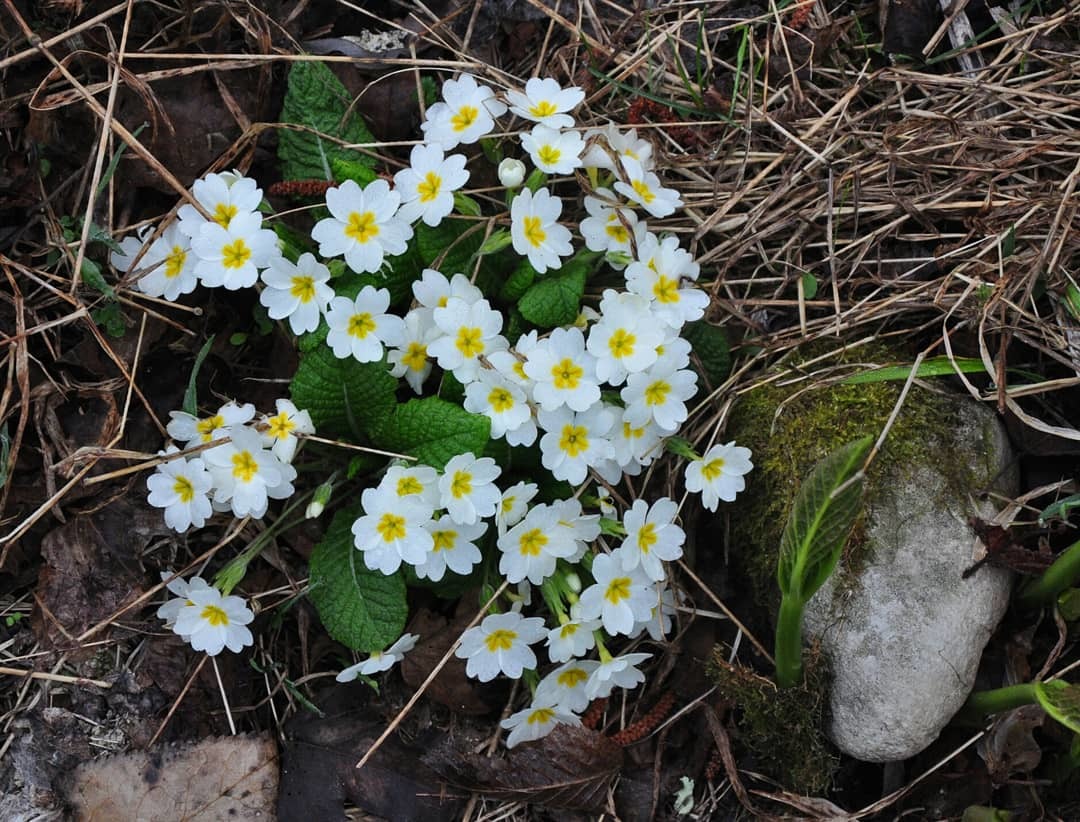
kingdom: Plantae
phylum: Tracheophyta
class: Magnoliopsida
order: Ericales
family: Primulaceae
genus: Primula
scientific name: Primula vulgaris
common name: Primrose
